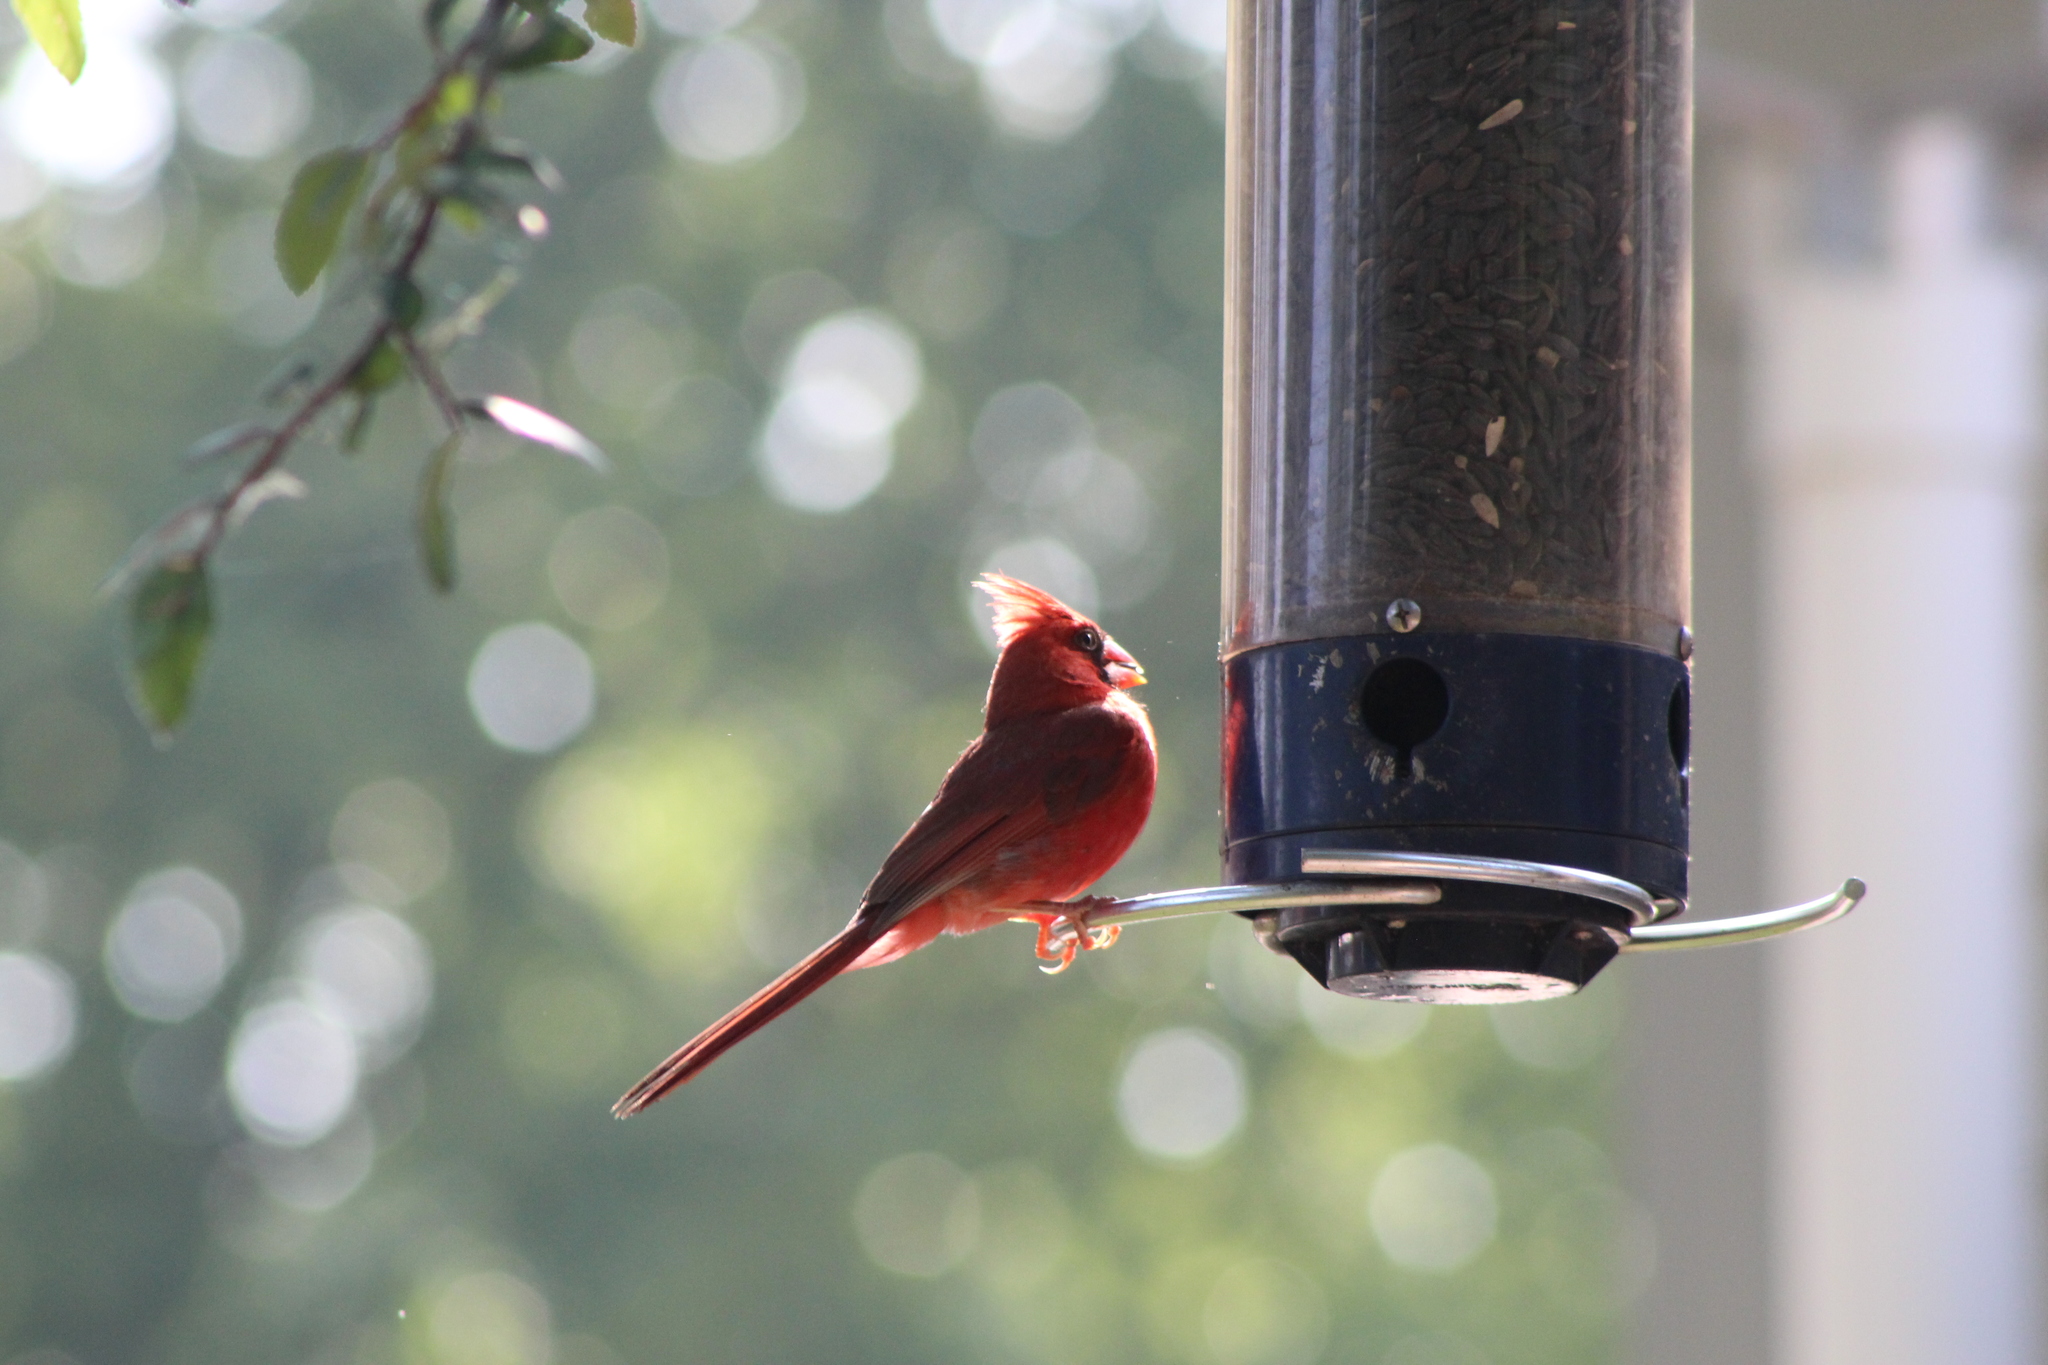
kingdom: Animalia
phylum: Chordata
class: Aves
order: Passeriformes
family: Cardinalidae
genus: Cardinalis
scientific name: Cardinalis cardinalis
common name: Northern cardinal
